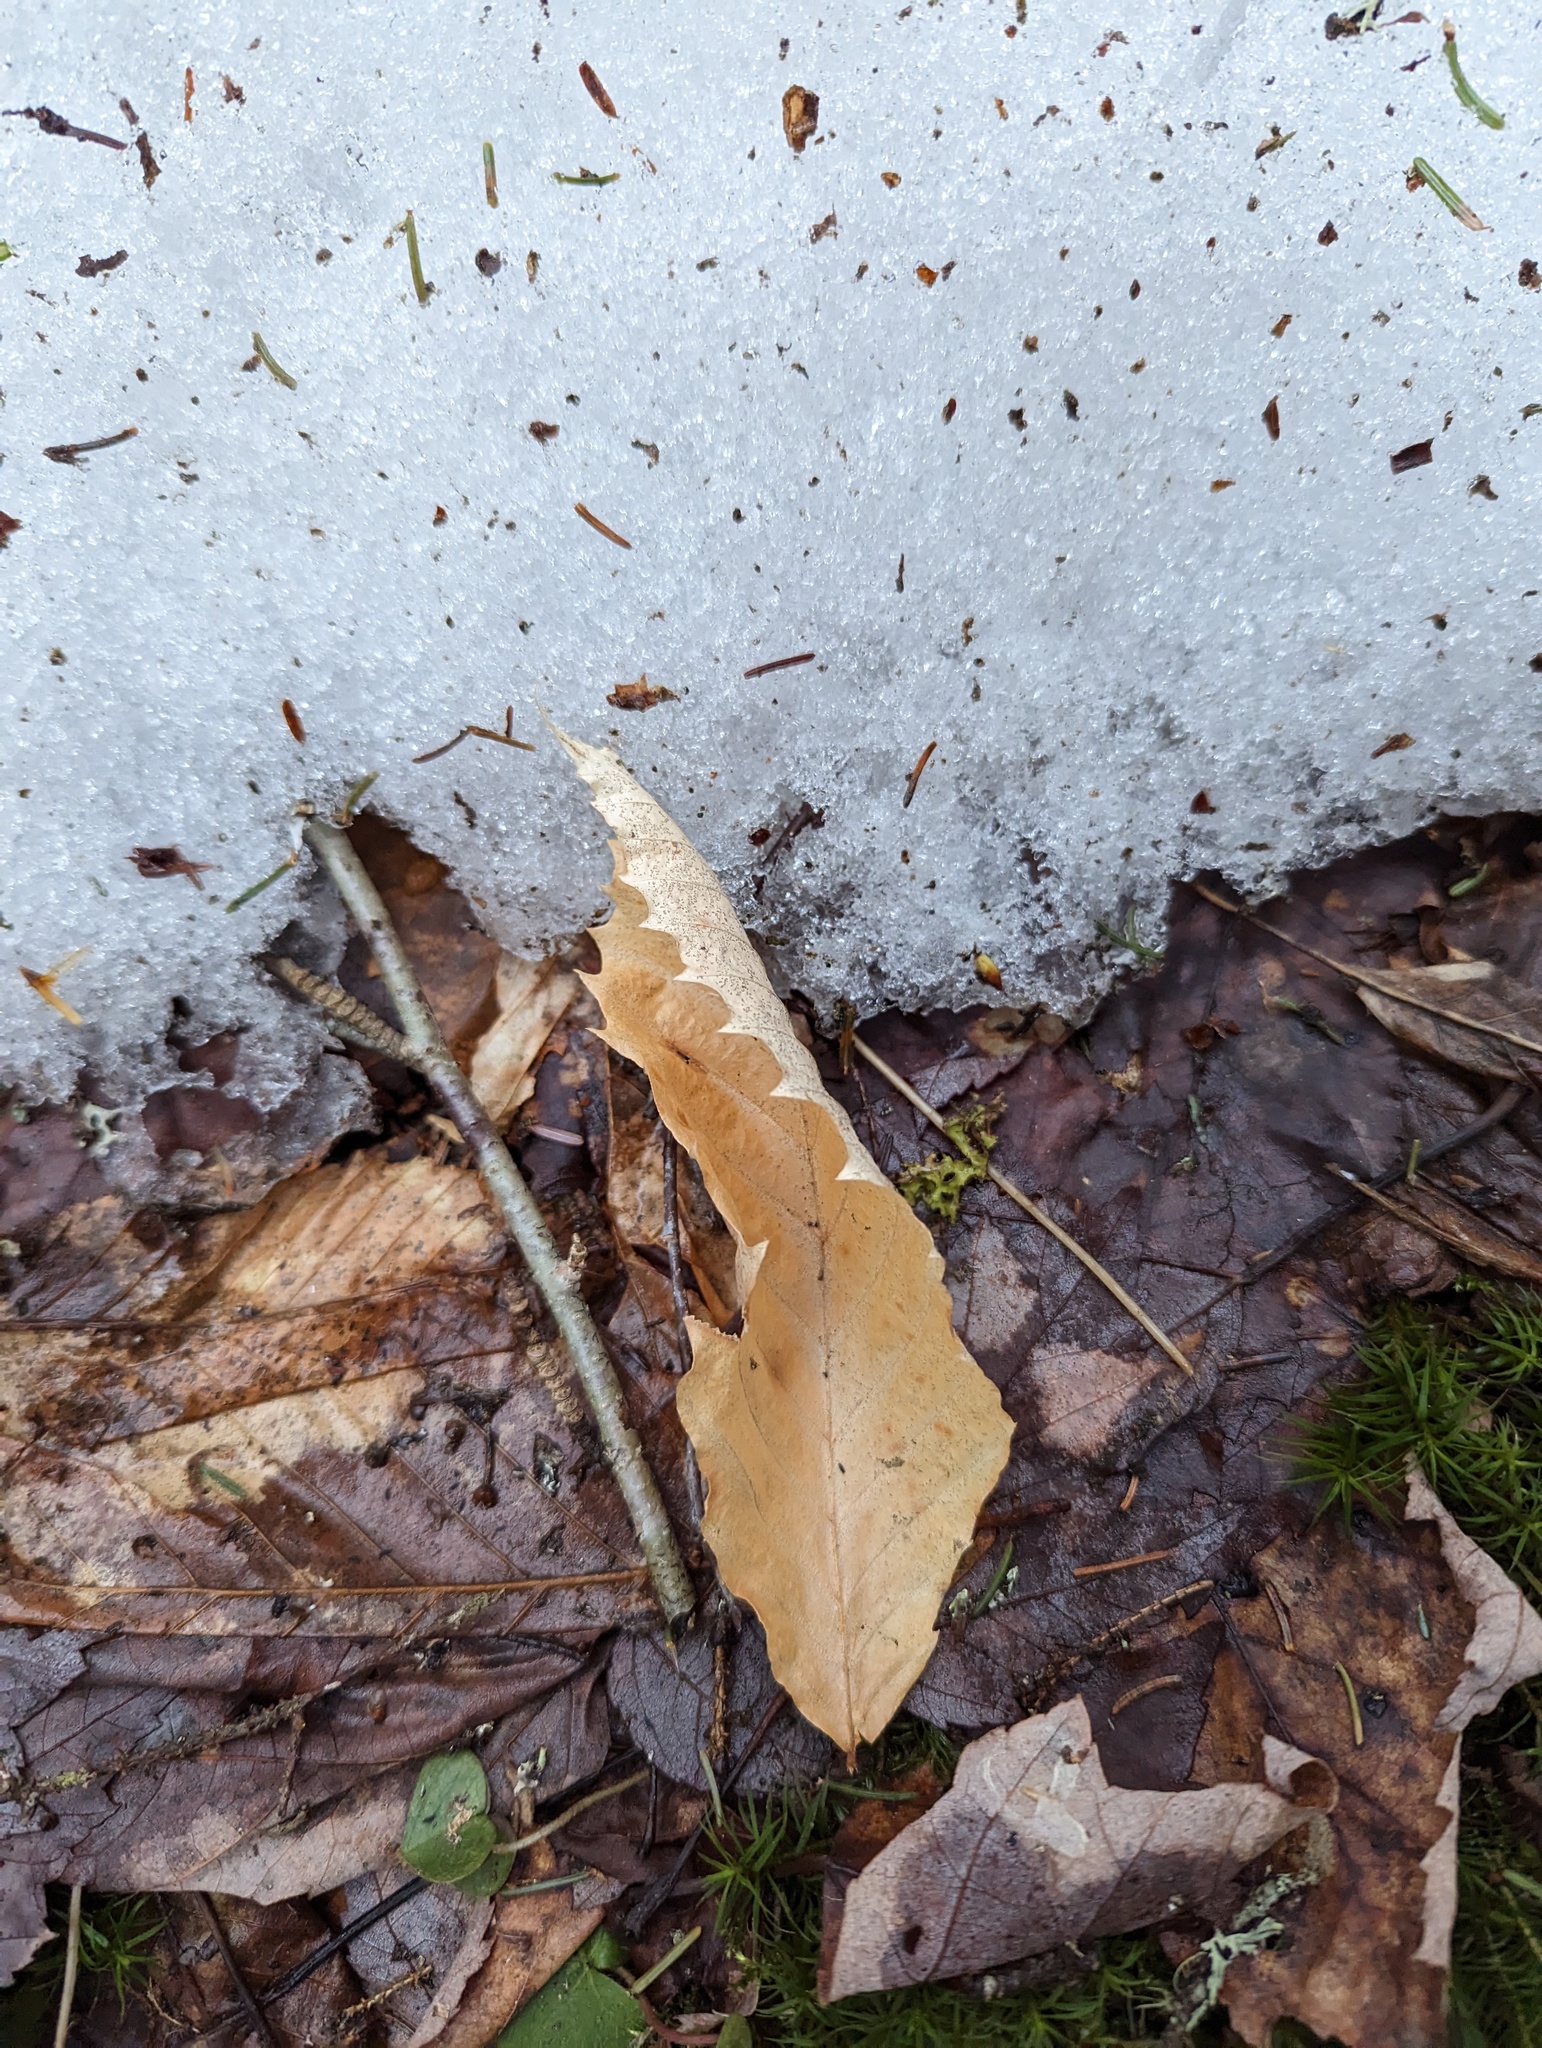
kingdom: Plantae
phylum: Tracheophyta
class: Magnoliopsida
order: Fagales
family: Fagaceae
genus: Fagus
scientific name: Fagus grandifolia
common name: American beech
